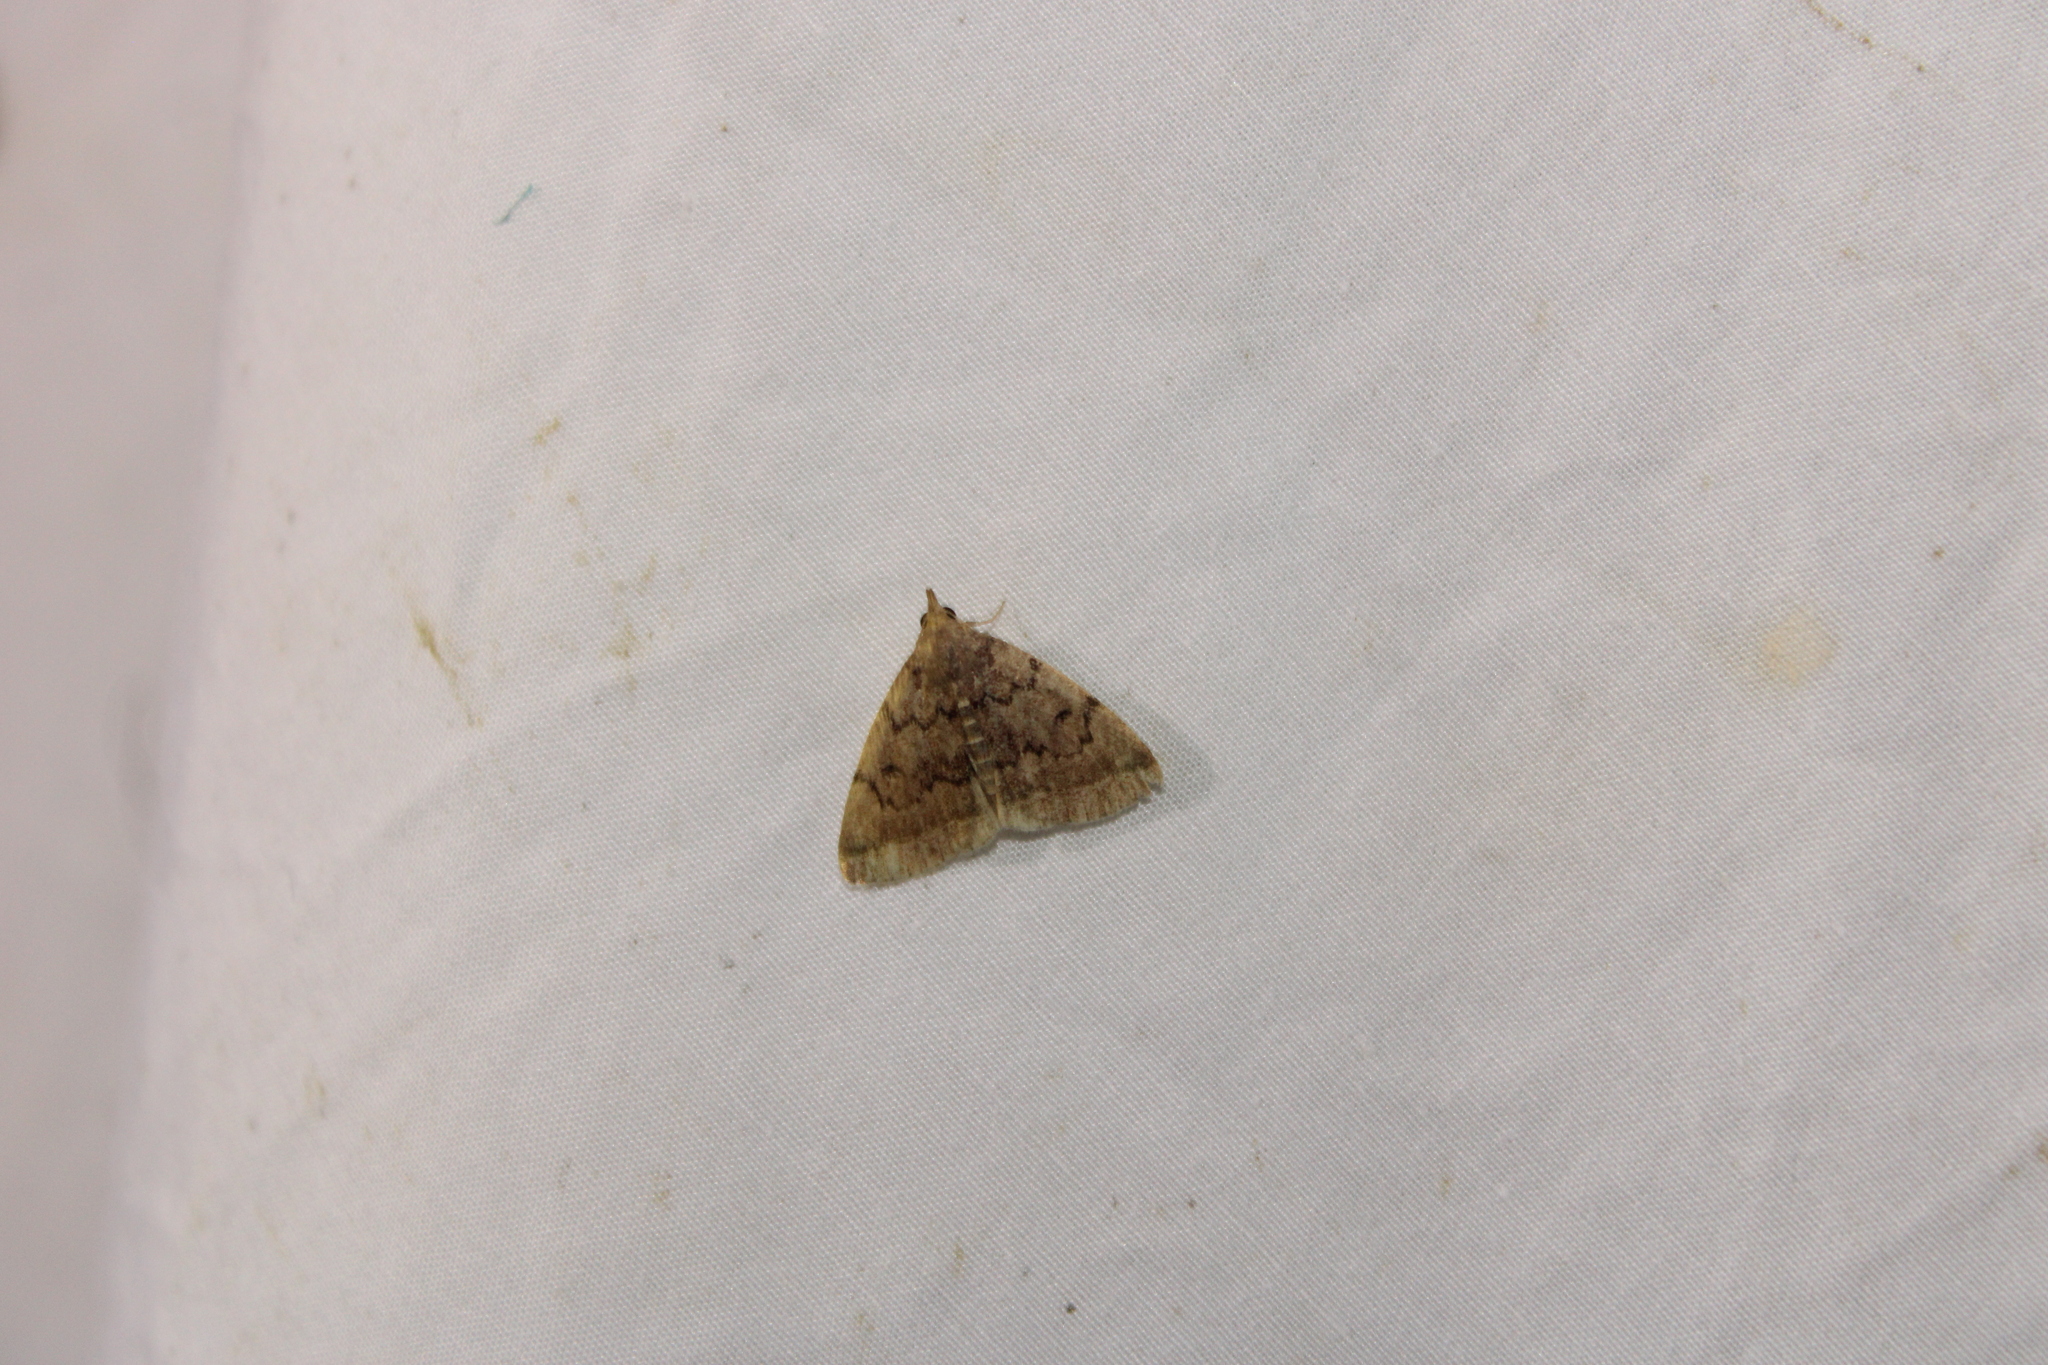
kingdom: Animalia
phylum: Arthropoda
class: Insecta
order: Lepidoptera
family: Erebidae
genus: Zanclognatha
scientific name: Zanclognatha dentata
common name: Toothed fan-foot
